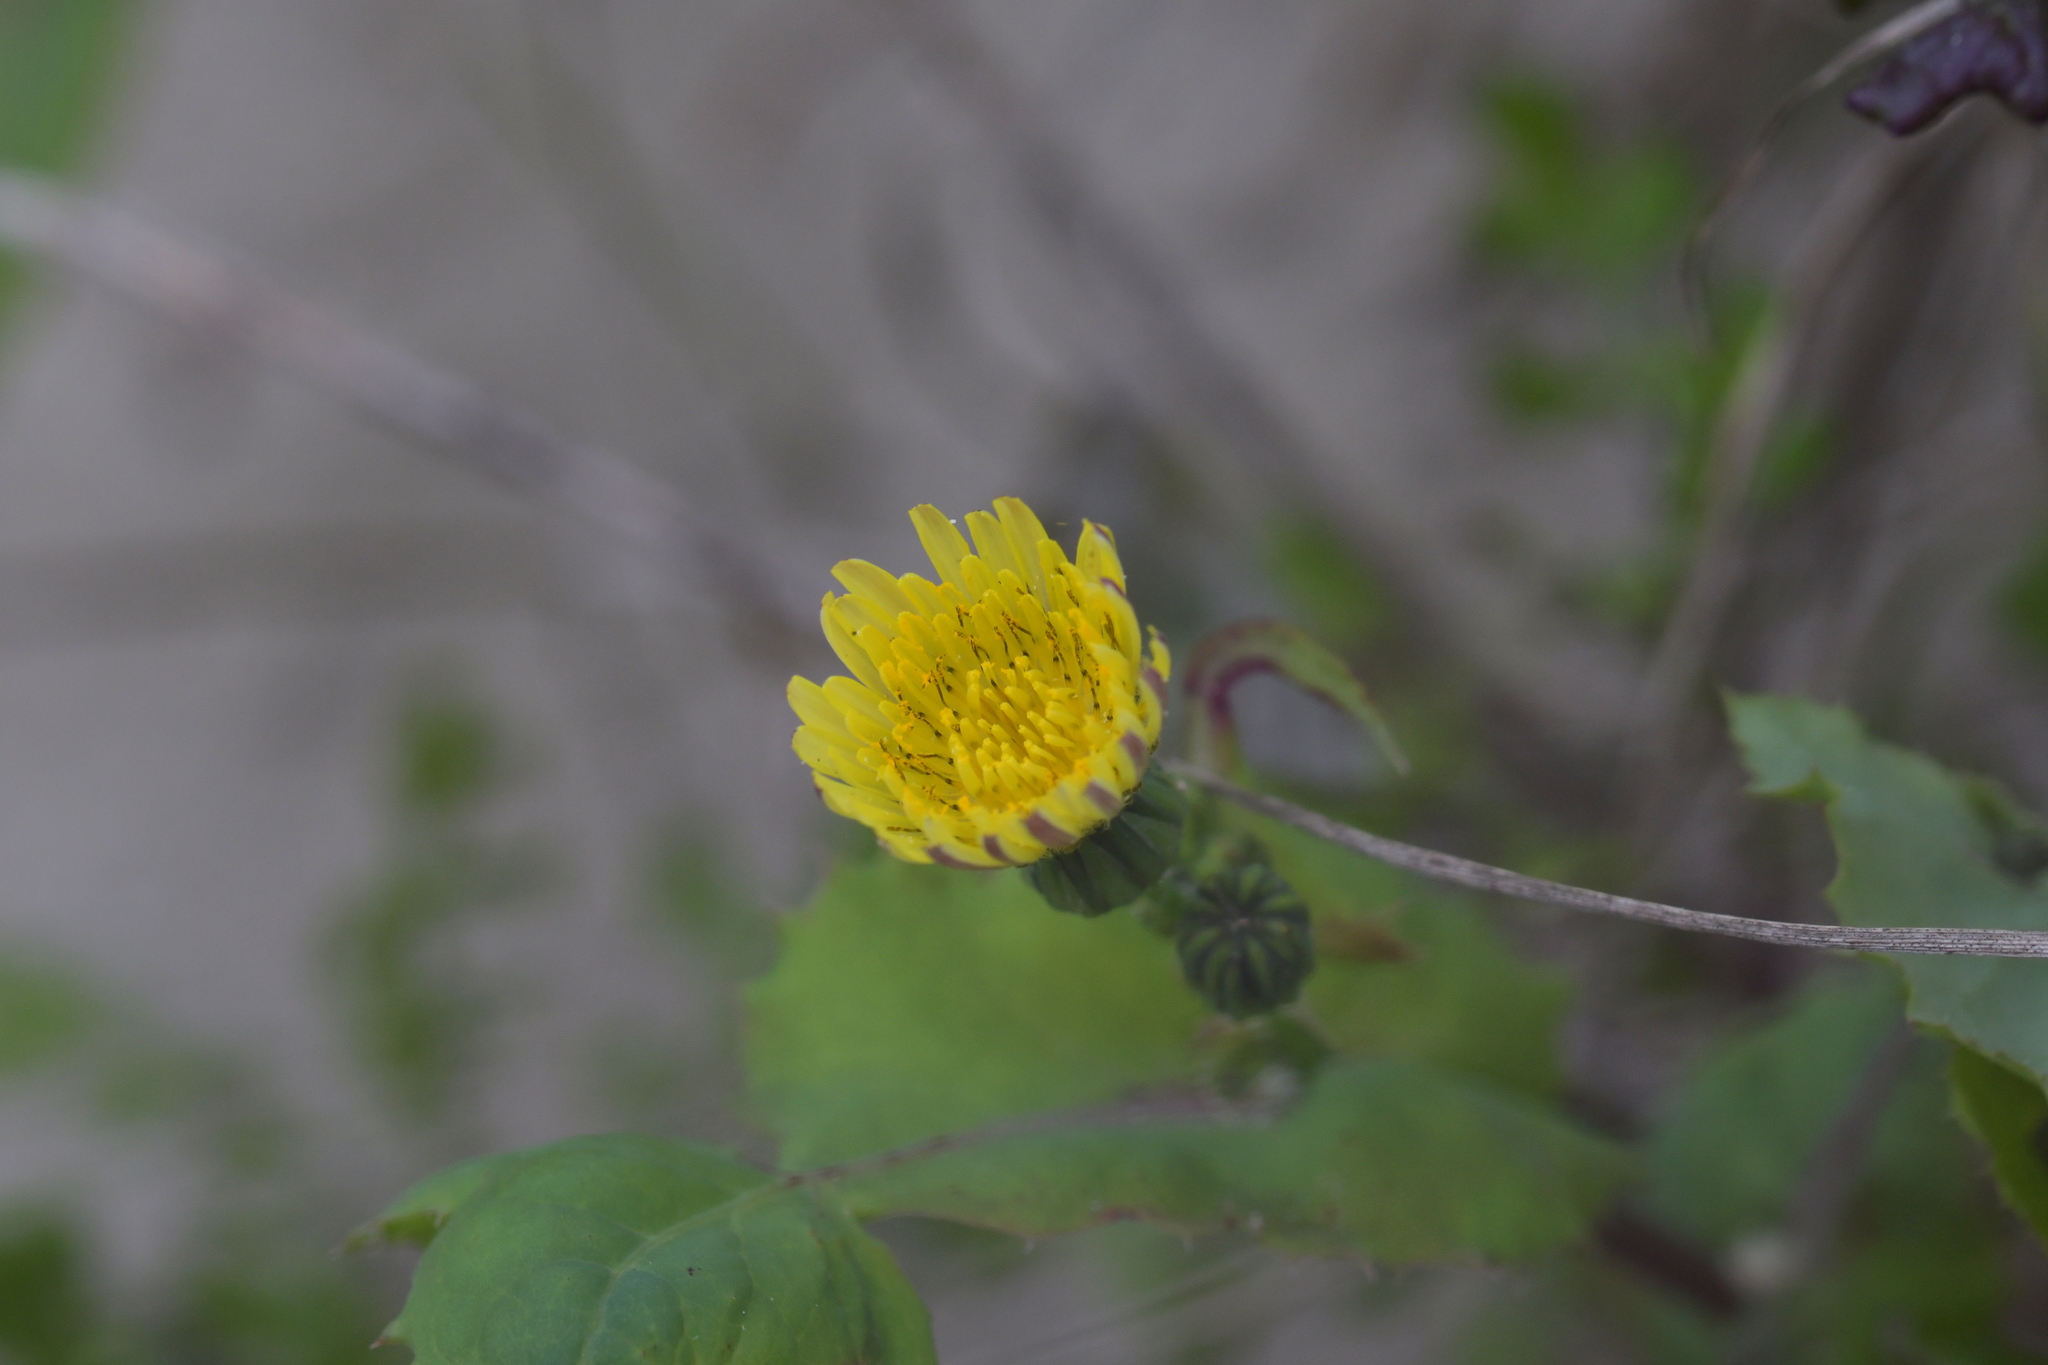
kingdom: Plantae
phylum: Tracheophyta
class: Magnoliopsida
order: Asterales
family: Asteraceae
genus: Sonchus
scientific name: Sonchus oleraceus
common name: Common sowthistle
